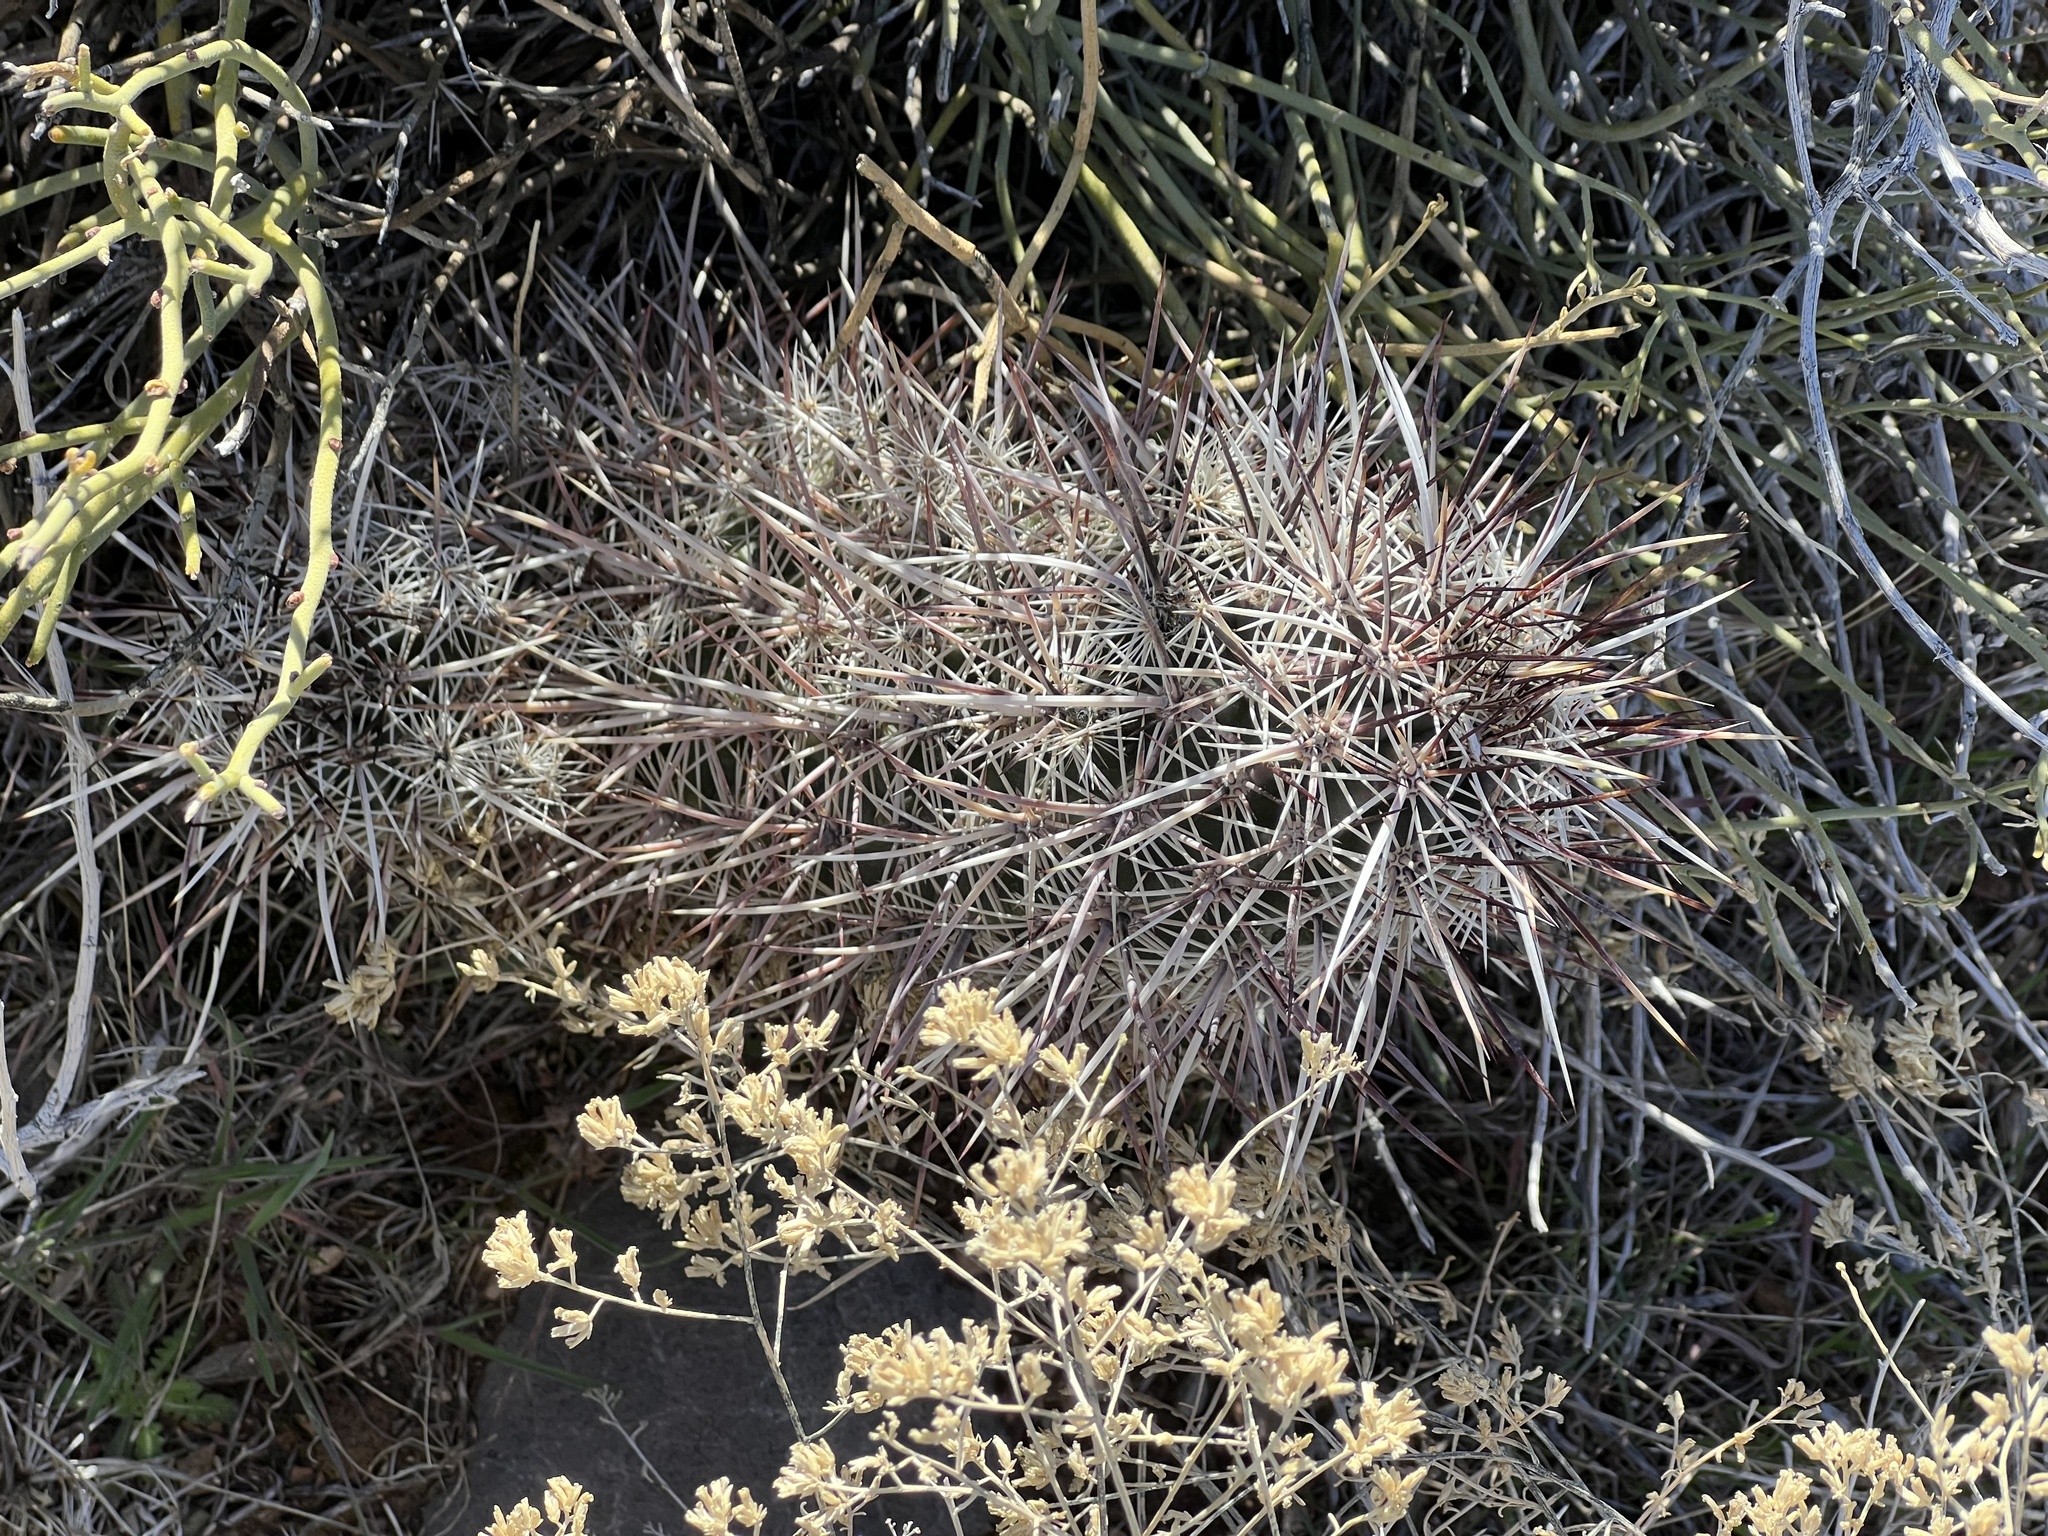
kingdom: Plantae
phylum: Tracheophyta
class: Magnoliopsida
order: Caryophyllales
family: Cactaceae
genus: Echinocereus
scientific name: Echinocereus engelmannii
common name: Engelmann's hedgehog cactus
